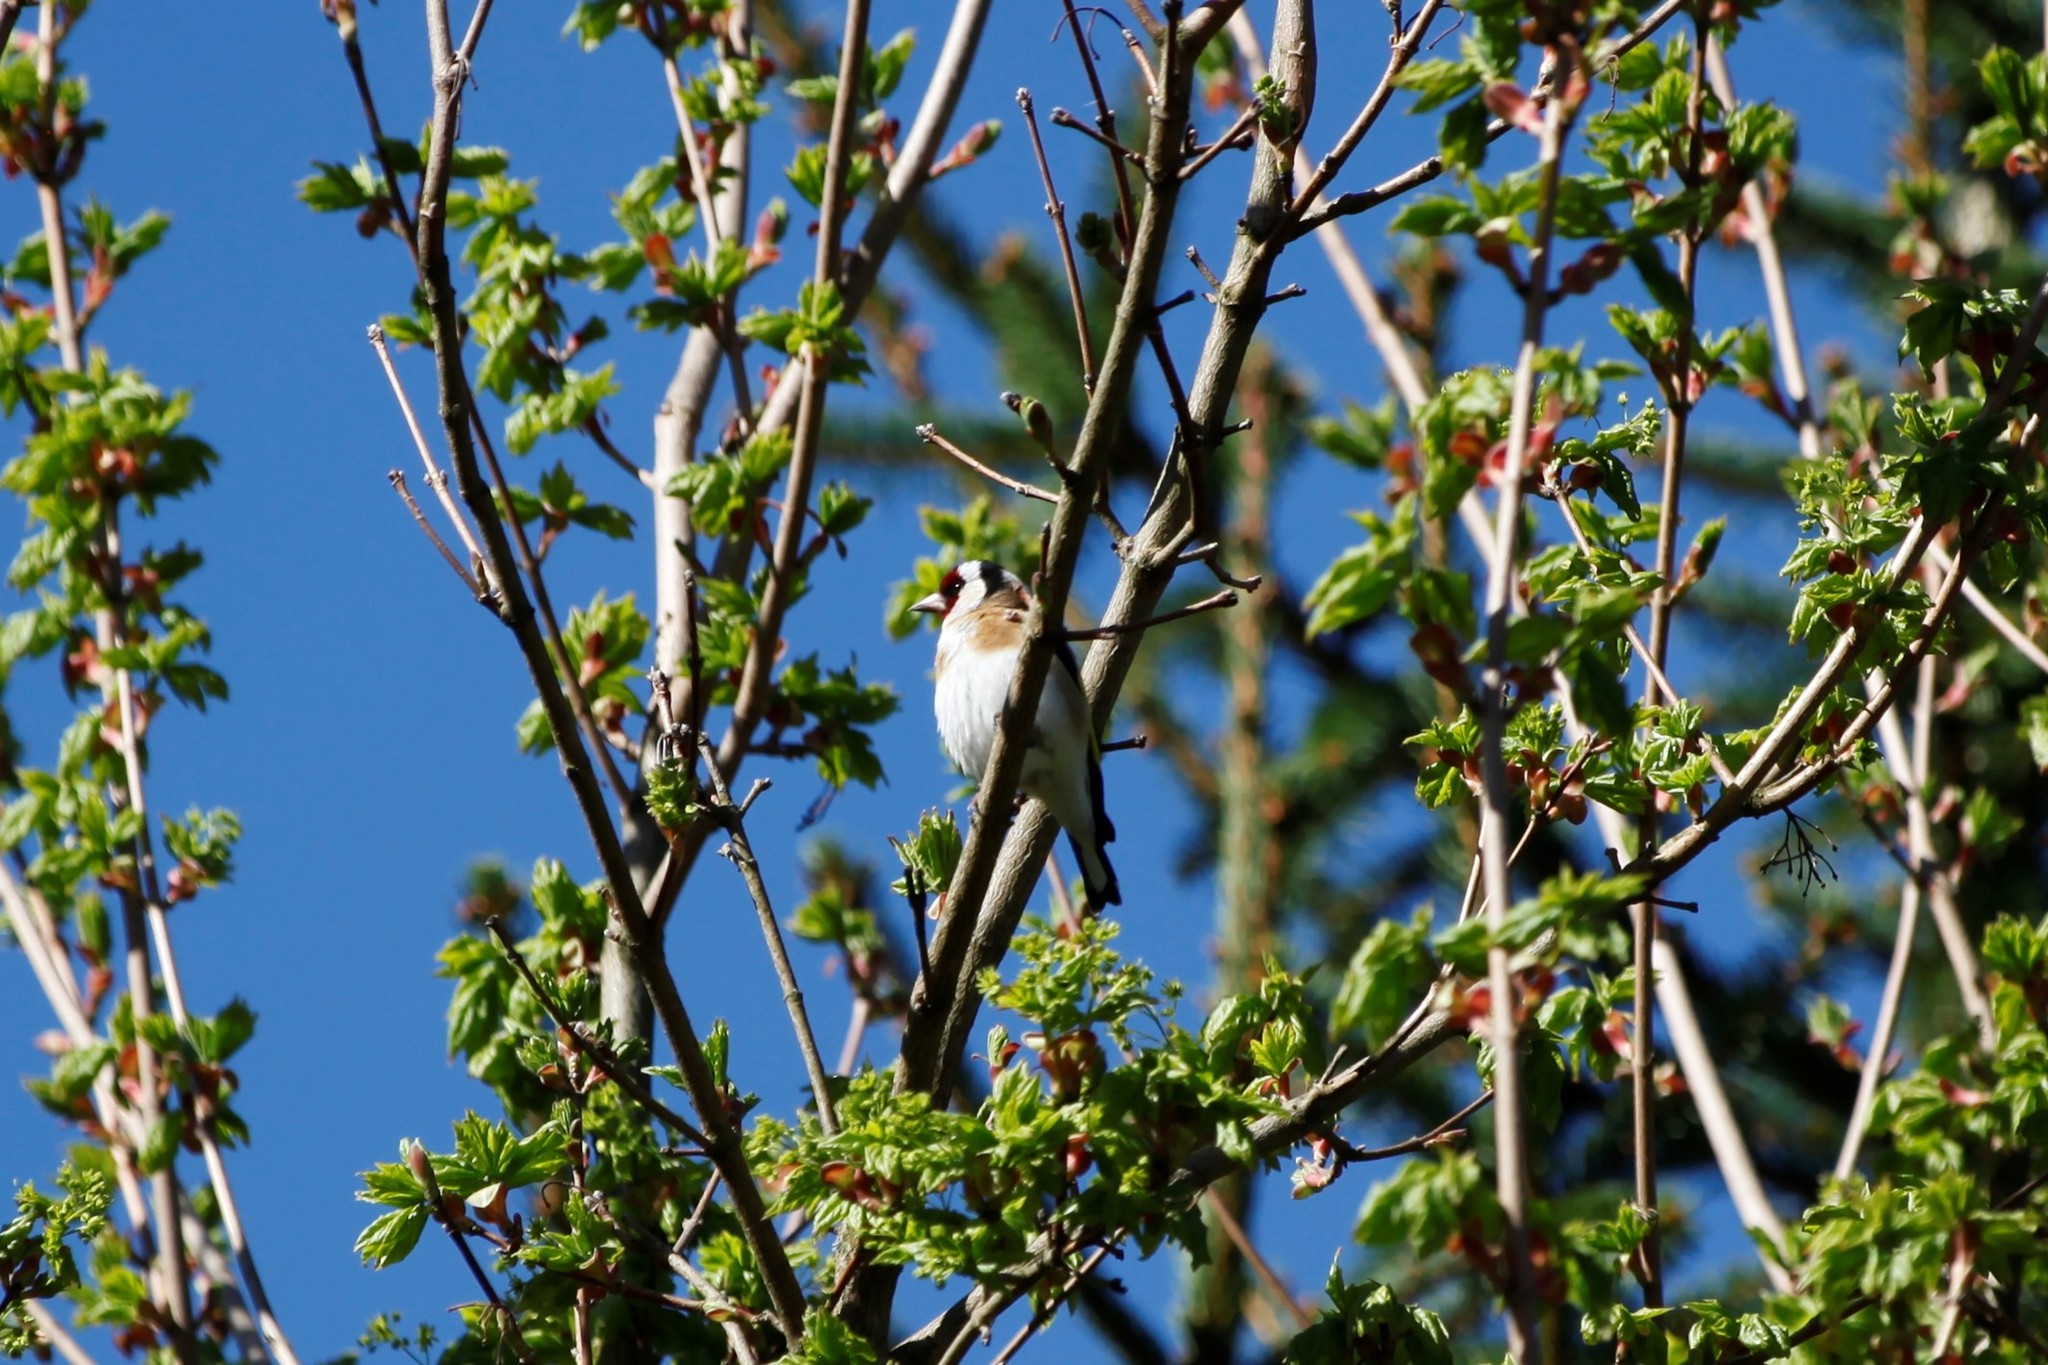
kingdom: Animalia
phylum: Chordata
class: Aves
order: Passeriformes
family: Fringillidae
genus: Carduelis
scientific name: Carduelis carduelis
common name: European goldfinch
